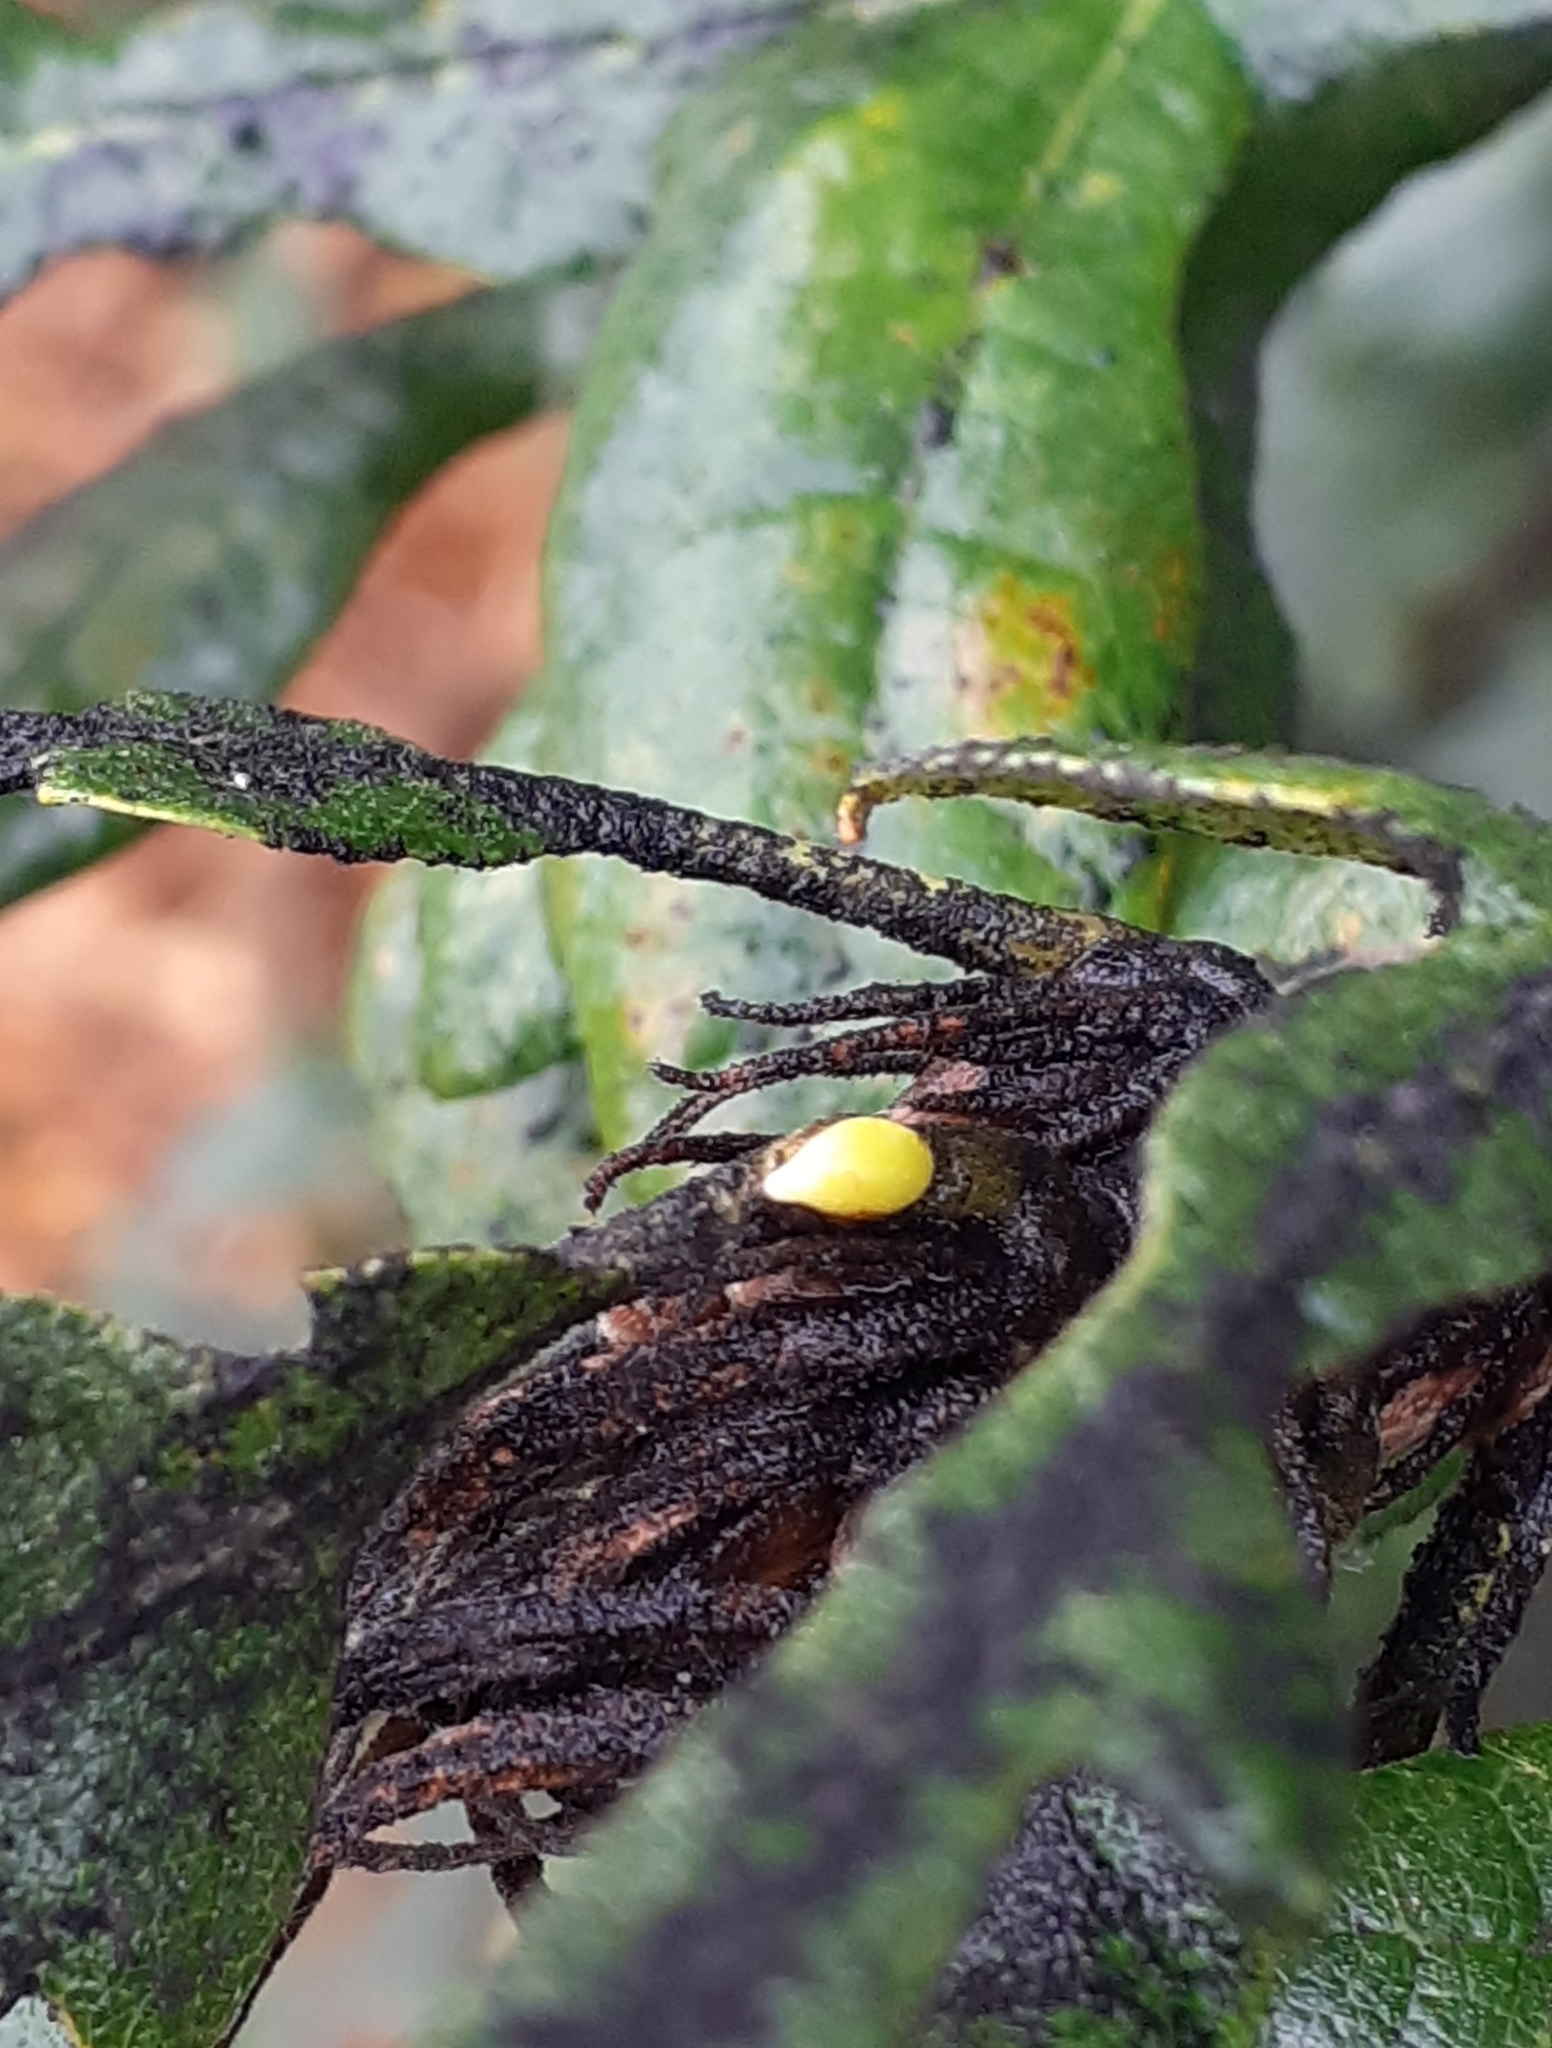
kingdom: Animalia
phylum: Arthropoda
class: Insecta
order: Hymenoptera
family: Cynipidae
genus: Neuroterus
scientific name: Neuroterus saliens
